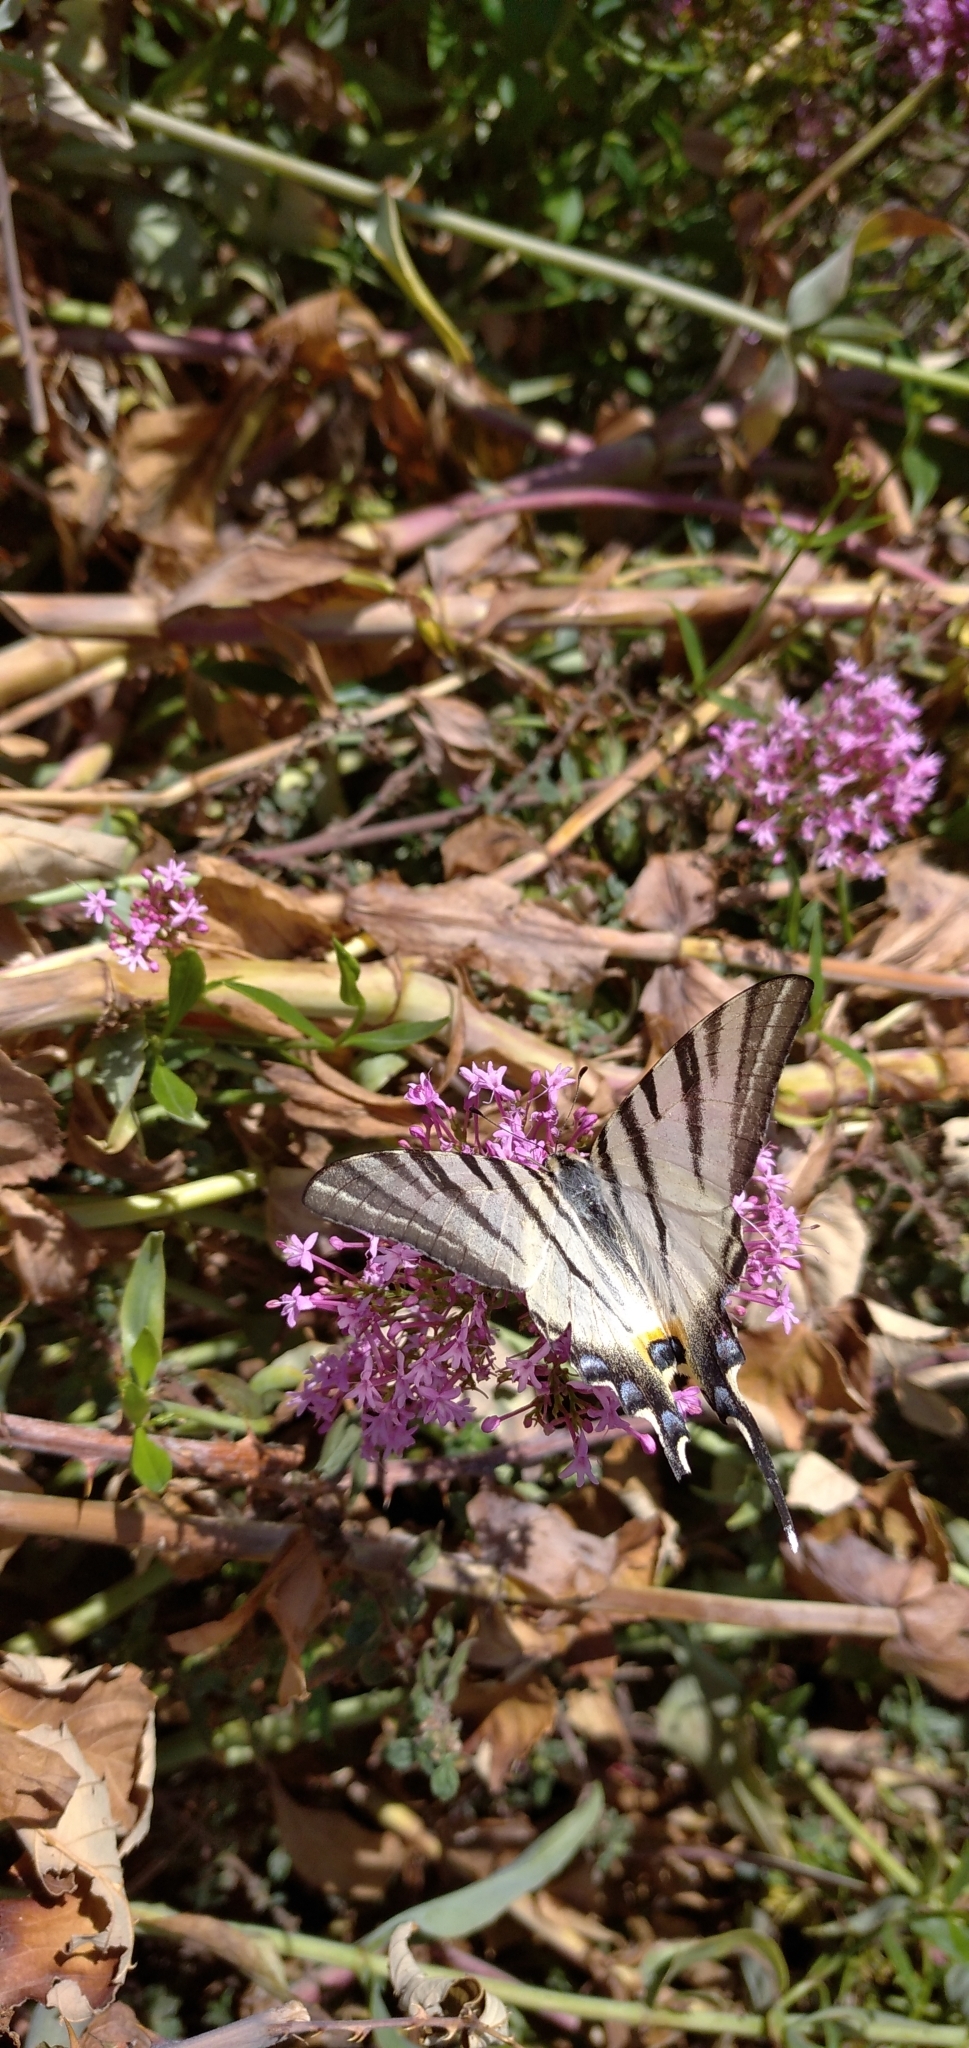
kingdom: Animalia
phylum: Arthropoda
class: Insecta
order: Lepidoptera
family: Papilionidae
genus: Iphiclides
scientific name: Iphiclides podalirius
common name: Scarce swallowtail
